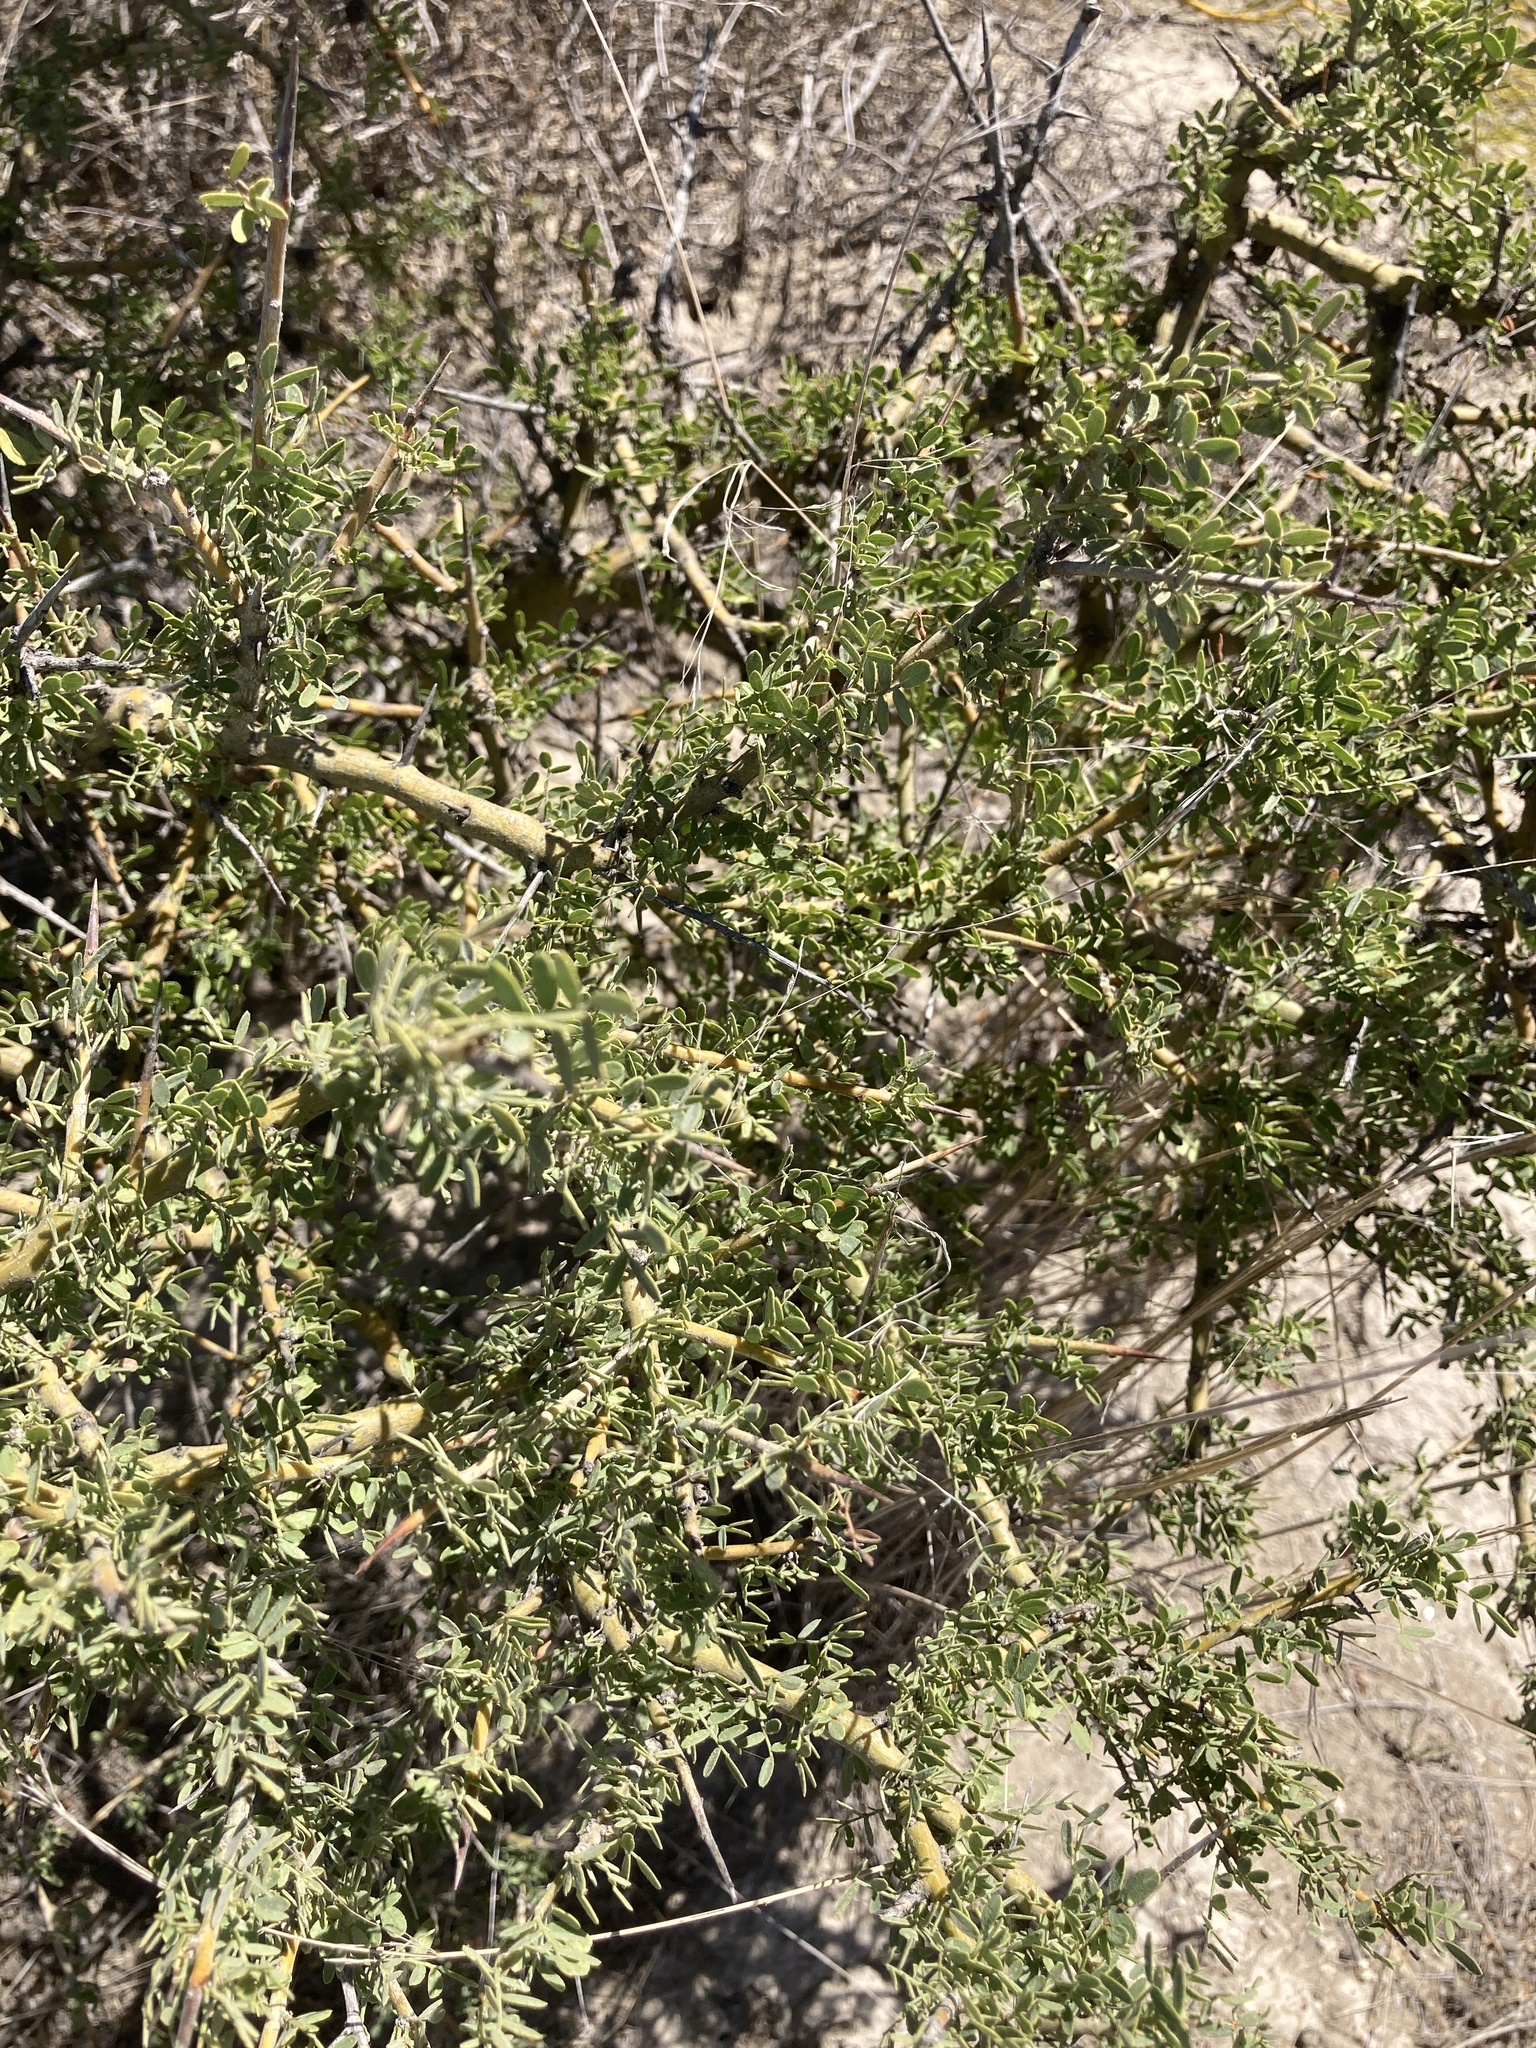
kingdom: Plantae
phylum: Tracheophyta
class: Magnoliopsida
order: Fabales
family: Fabaceae
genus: Geoffroea
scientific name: Geoffroea decorticans
